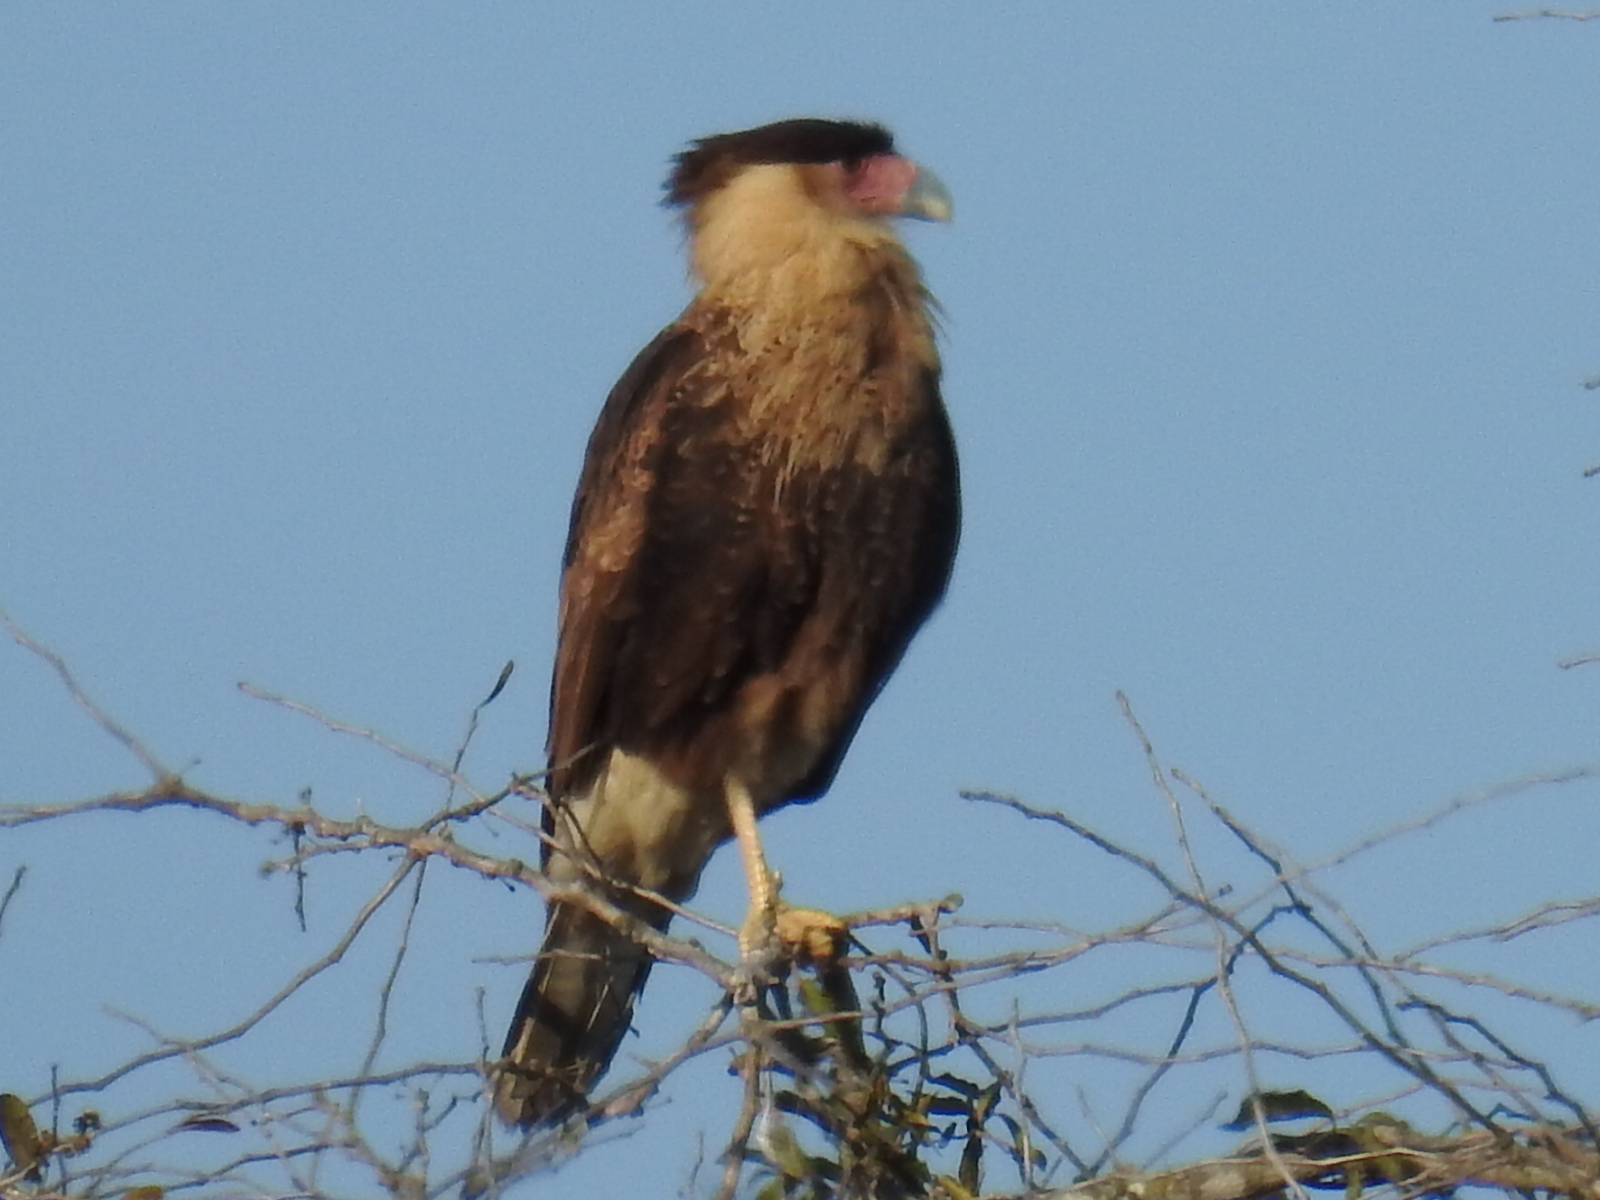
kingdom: Animalia
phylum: Chordata
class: Aves
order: Falconiformes
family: Falconidae
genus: Caracara
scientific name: Caracara plancus
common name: Southern caracara
